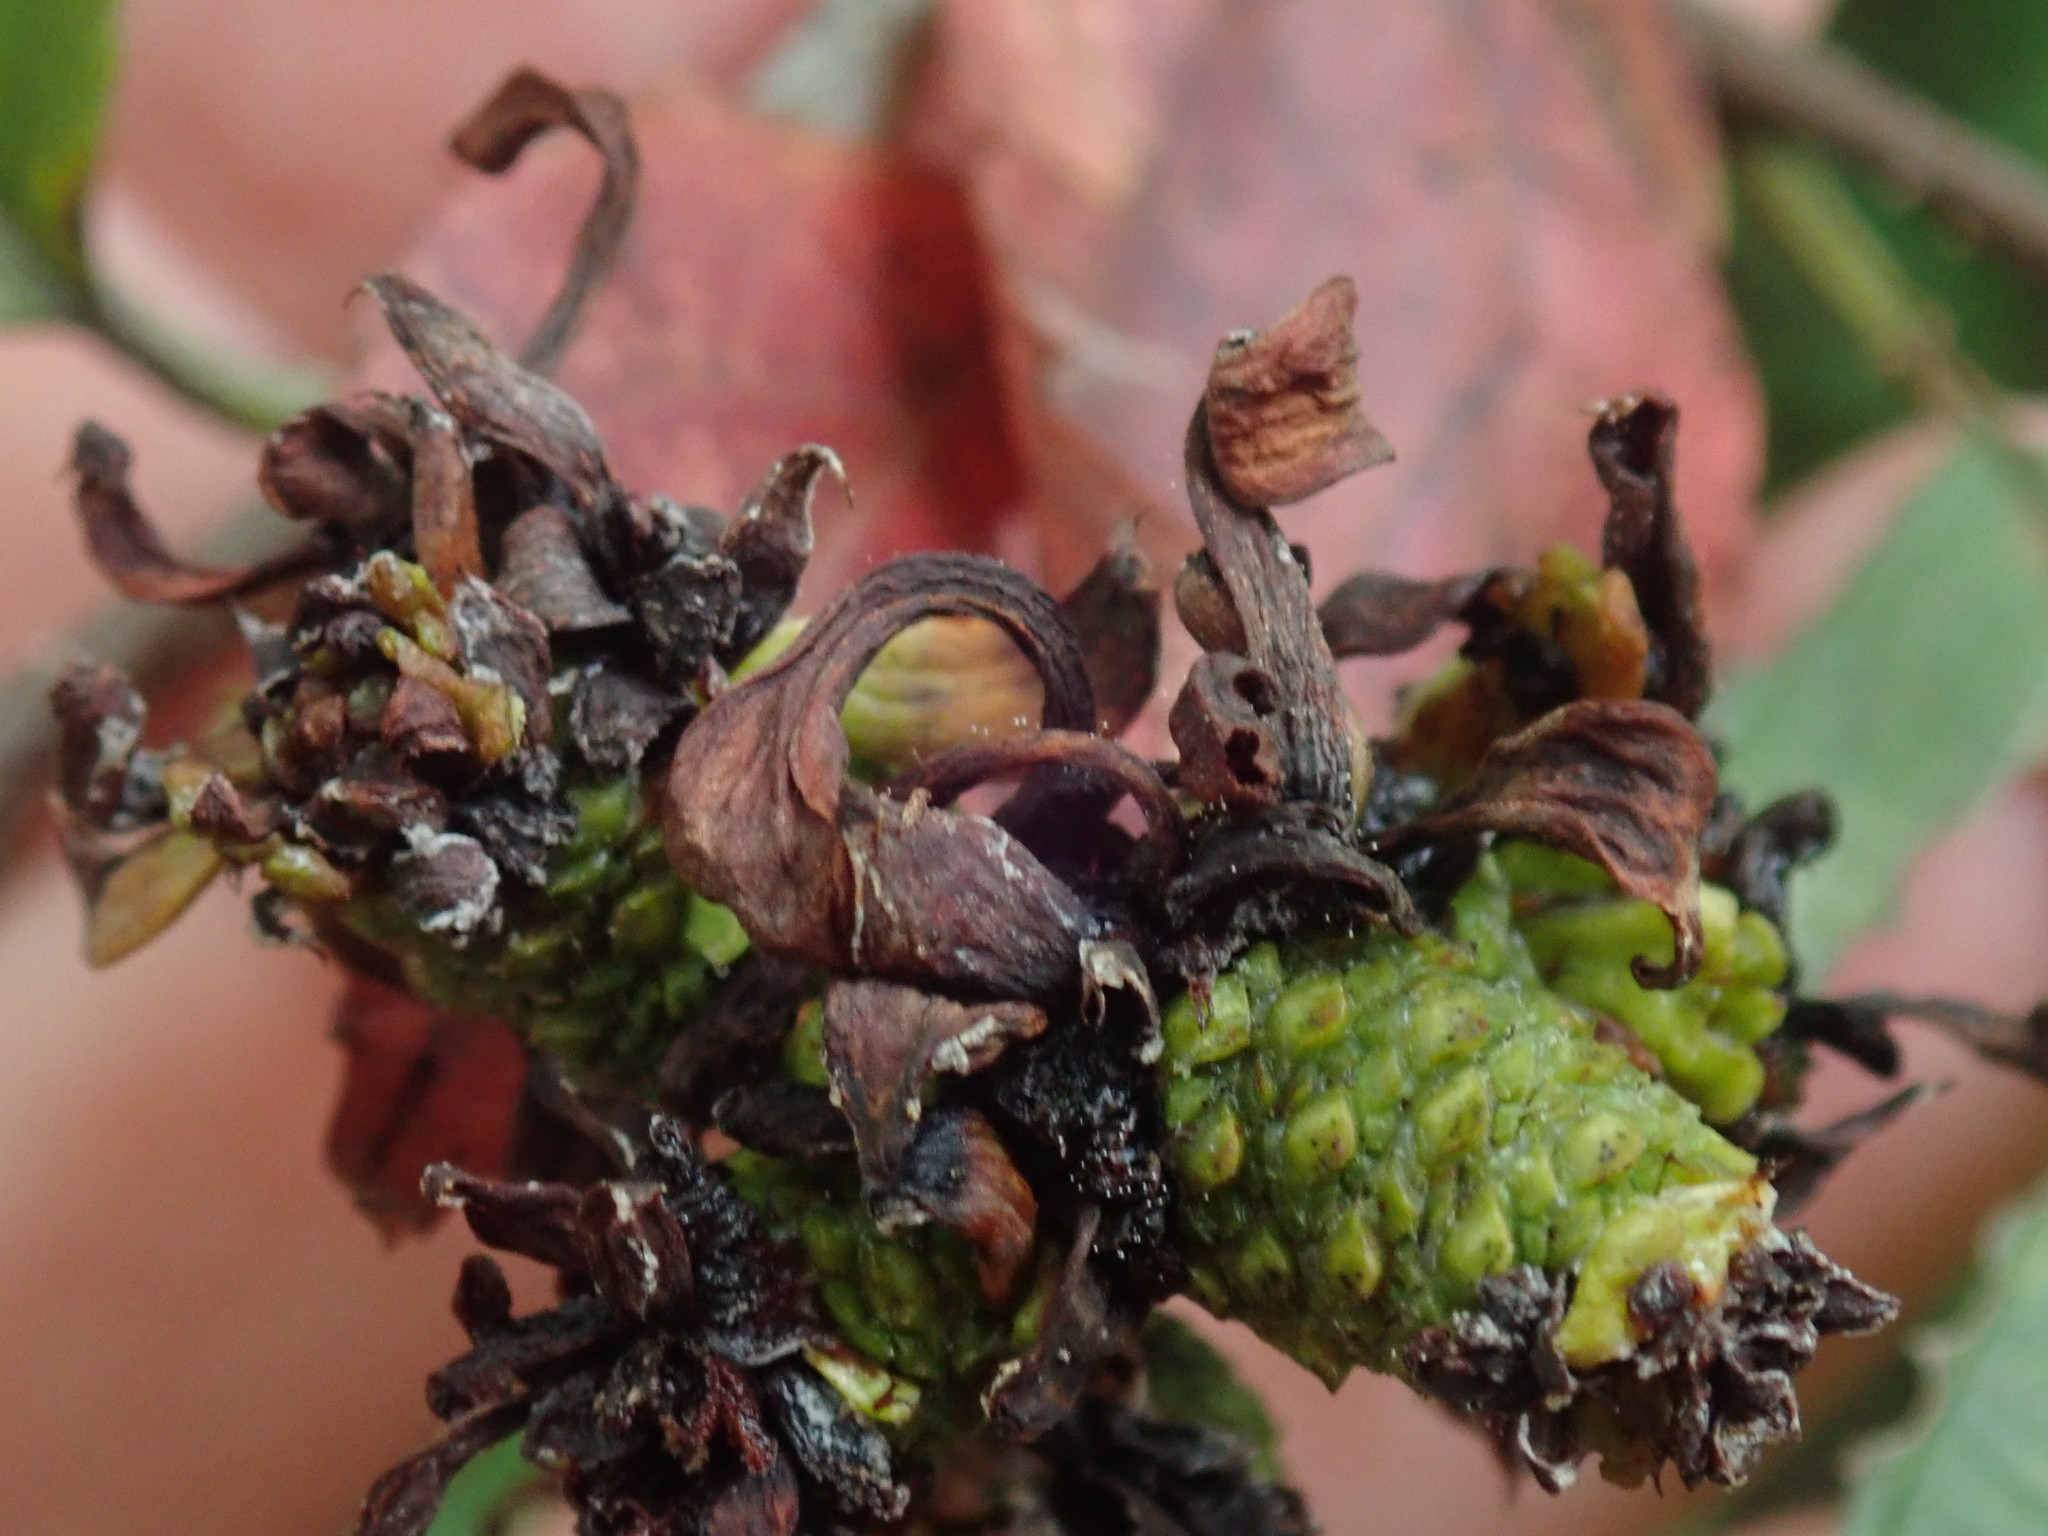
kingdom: Fungi
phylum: Ascomycota
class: Taphrinomycetes
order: Taphrinales
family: Taphrinaceae
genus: Taphrina
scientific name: Taphrina robinsoniana
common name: Eastern american alder tongue gall fungus
